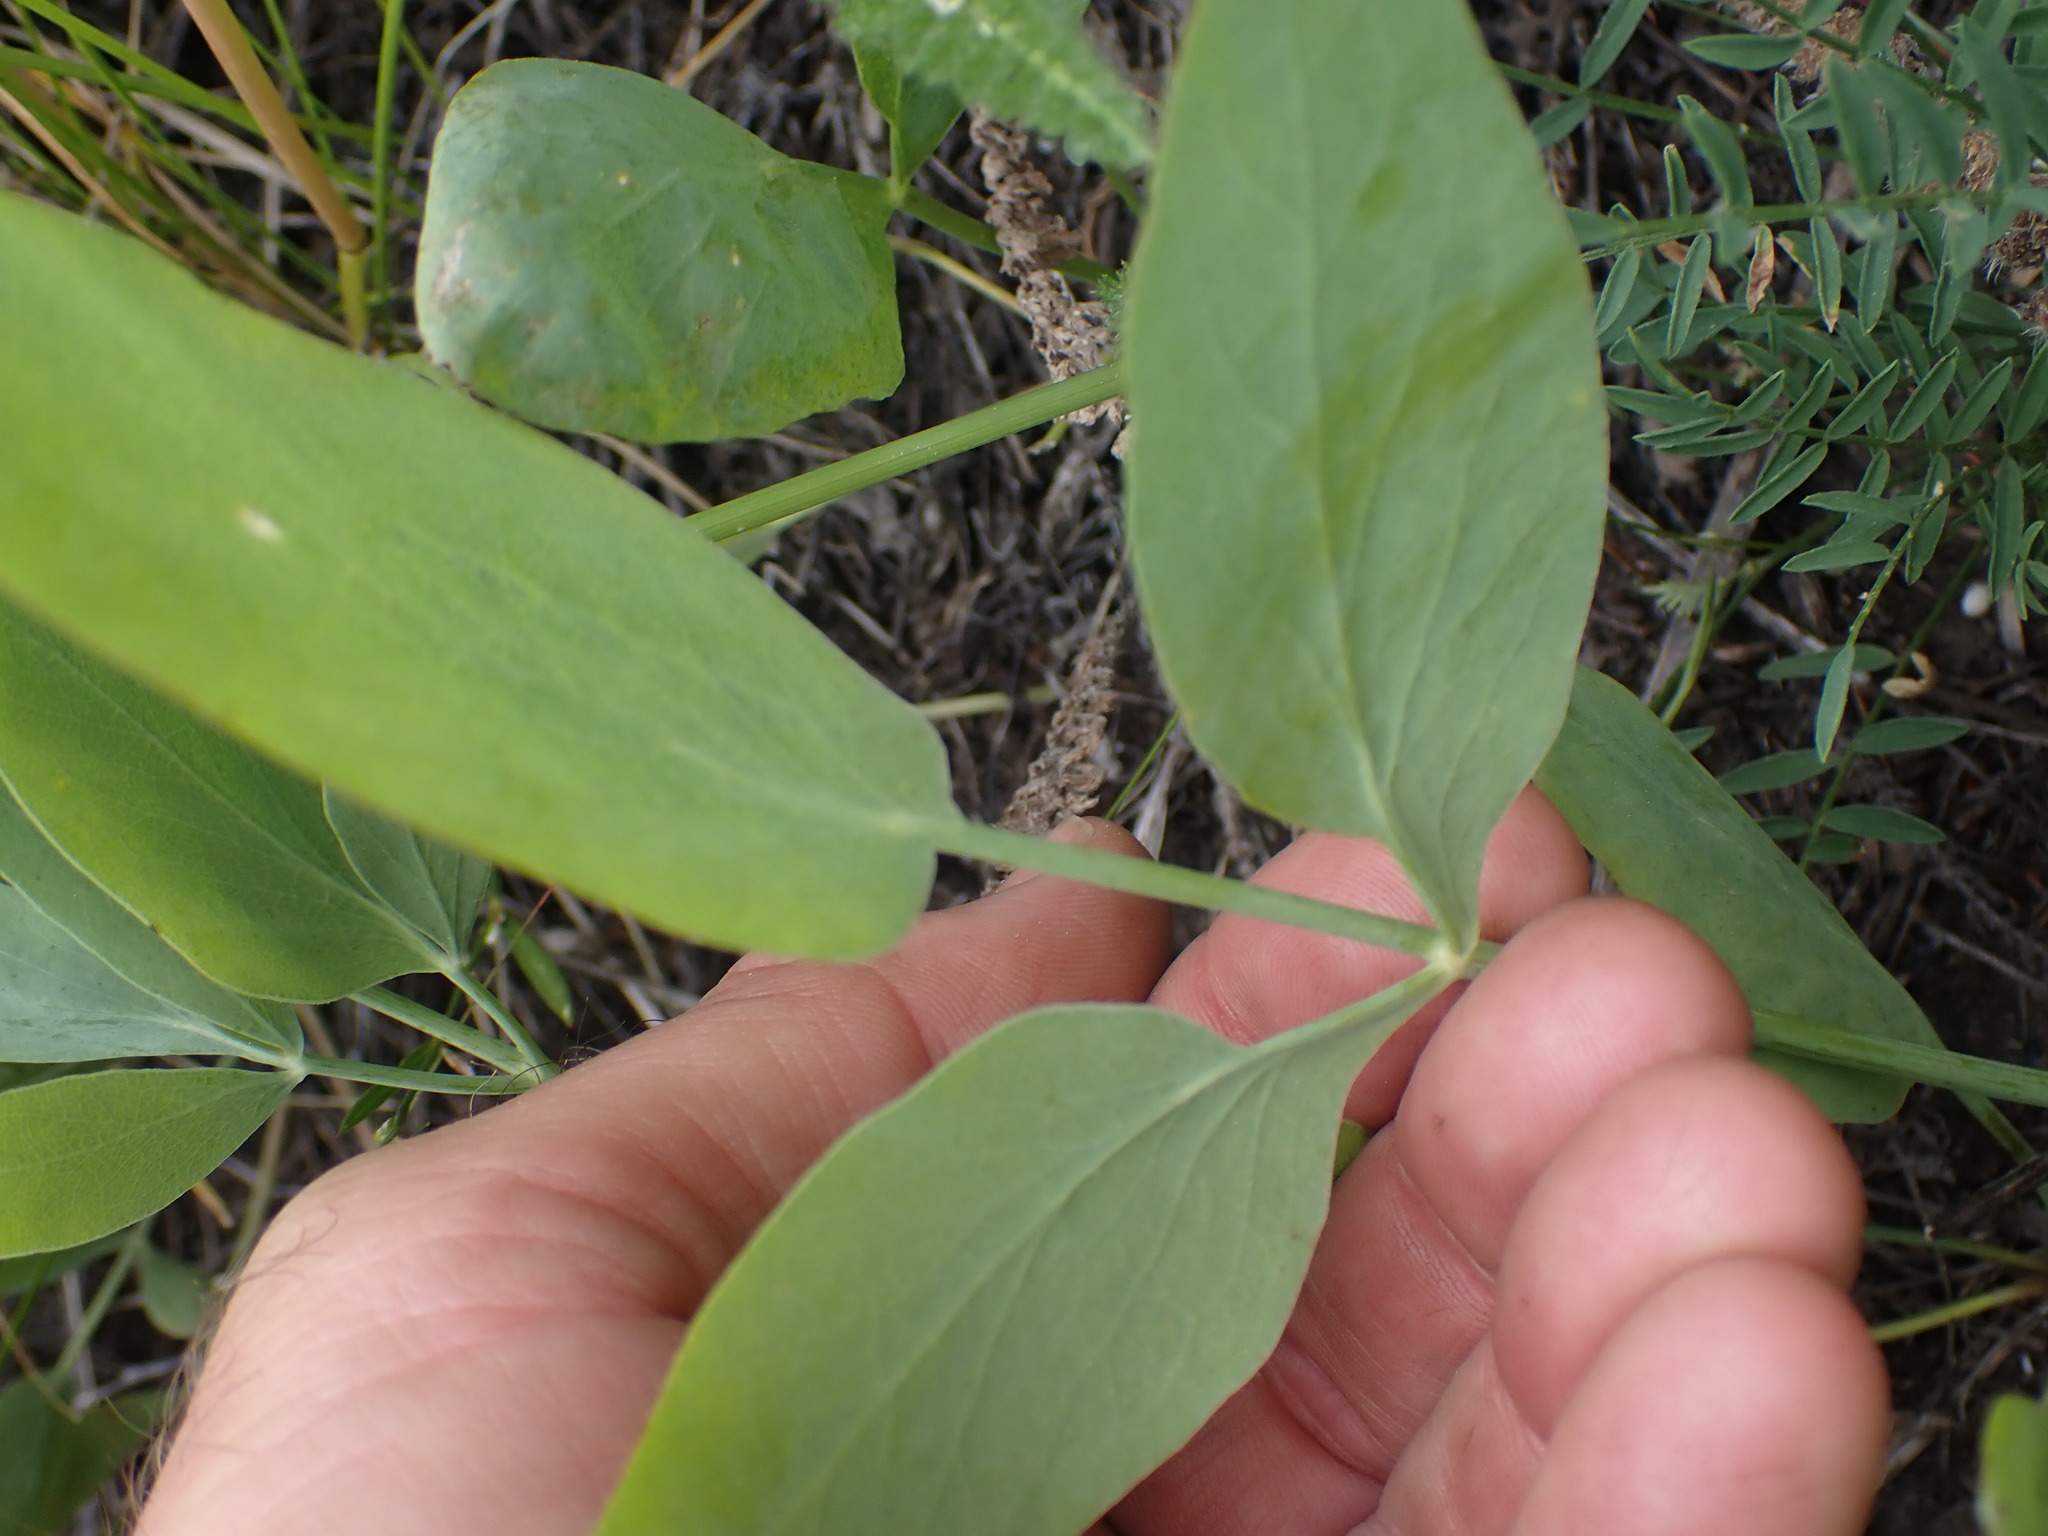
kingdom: Plantae
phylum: Tracheophyta
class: Magnoliopsida
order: Apiales
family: Apiaceae
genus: Lomatium
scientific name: Lomatium nudicaule
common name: Pestle lomatium
